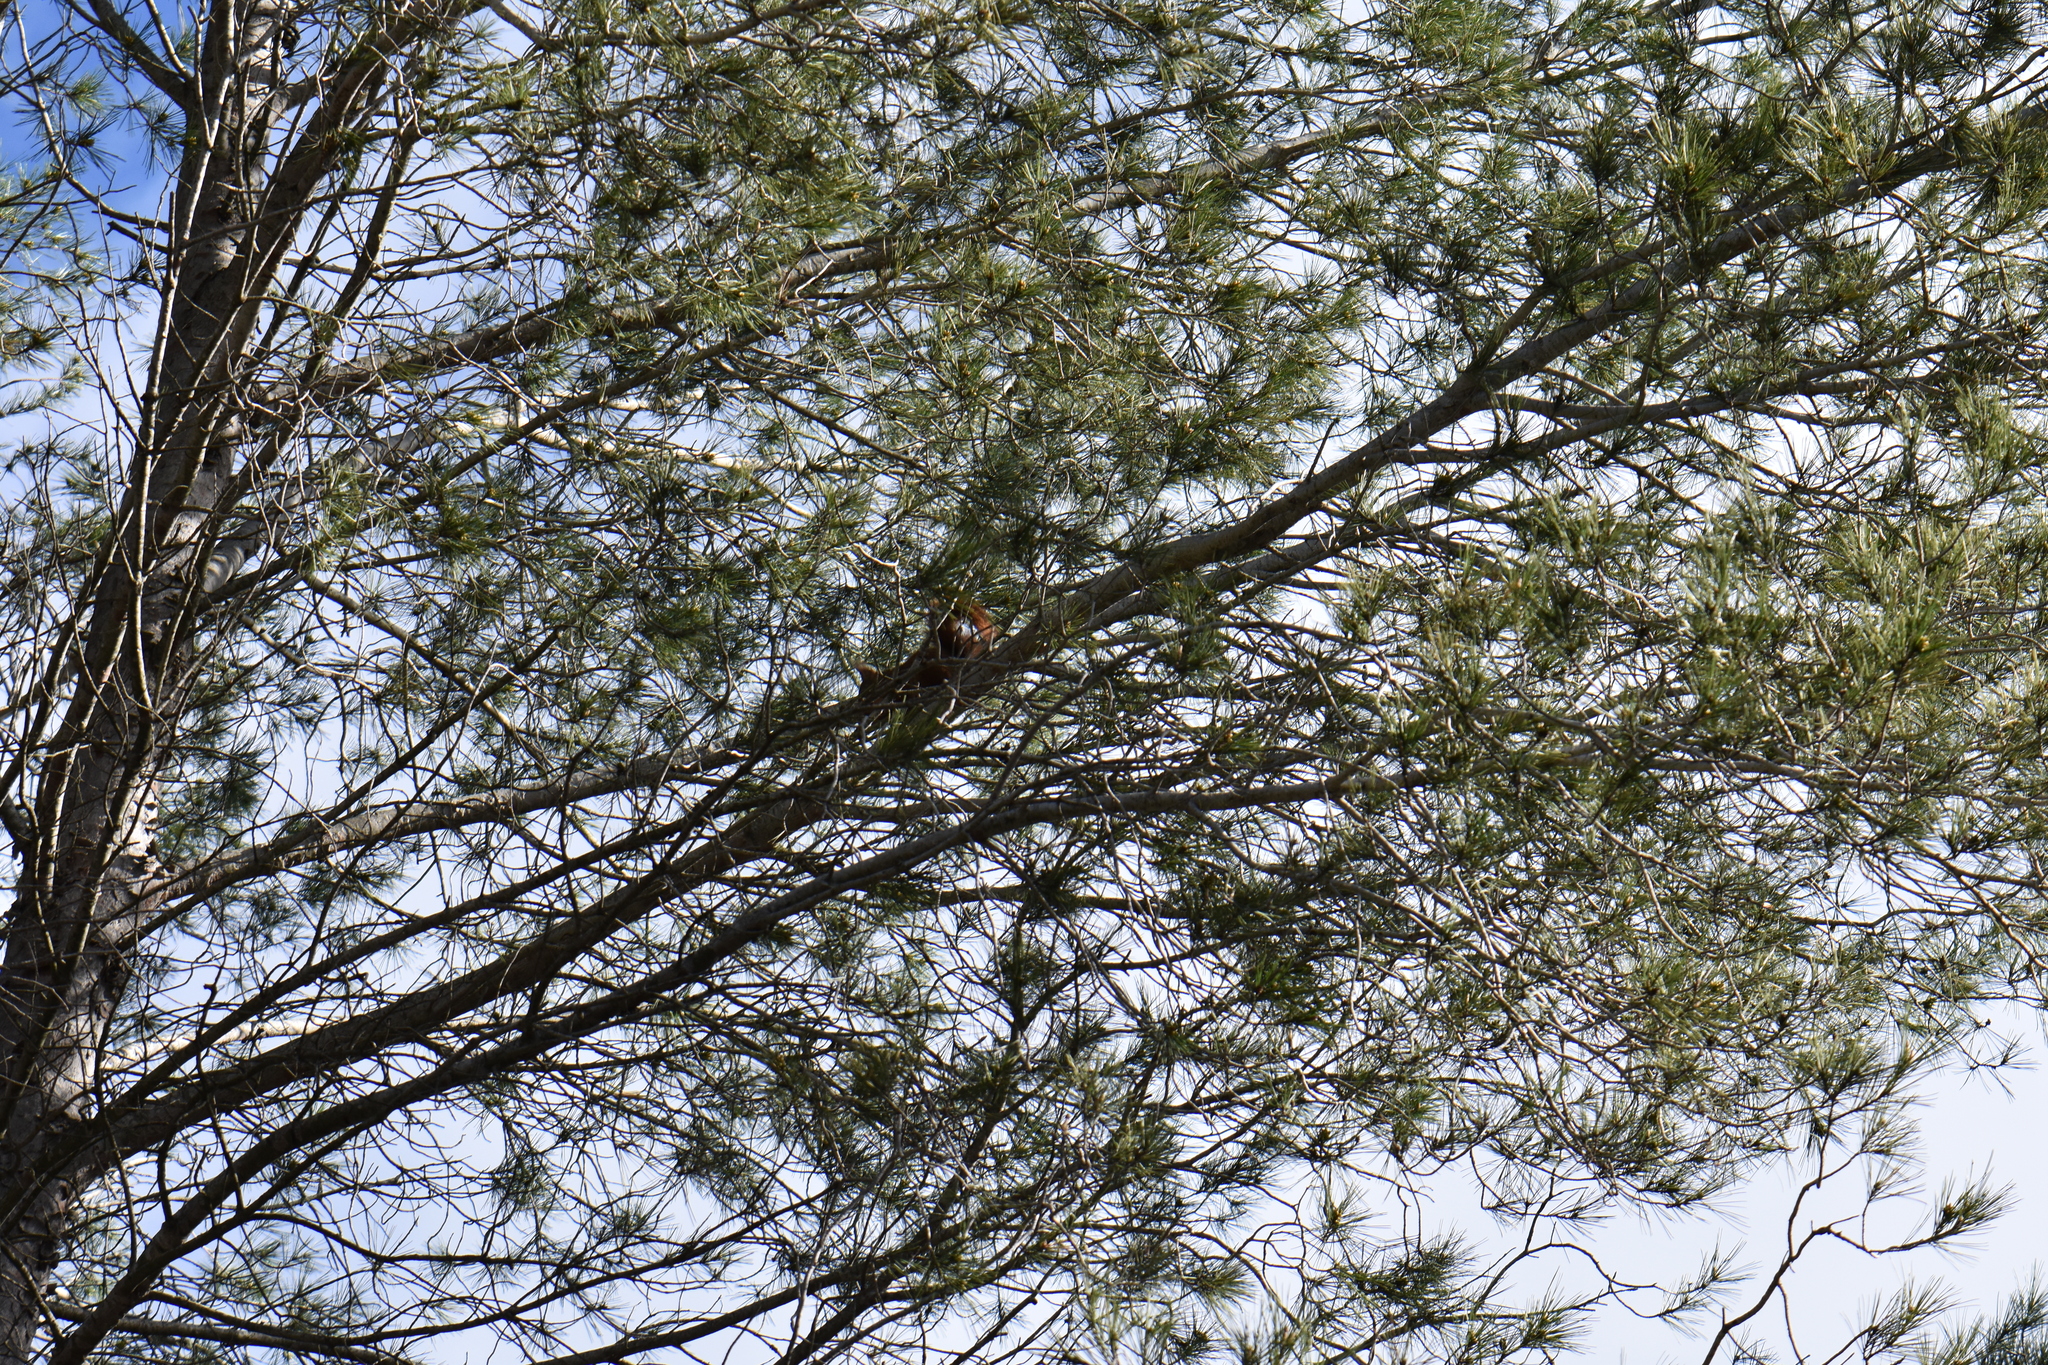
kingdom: Animalia
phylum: Chordata
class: Mammalia
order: Rodentia
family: Sciuridae
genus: Sciurus
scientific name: Sciurus vulgaris
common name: Eurasian red squirrel
